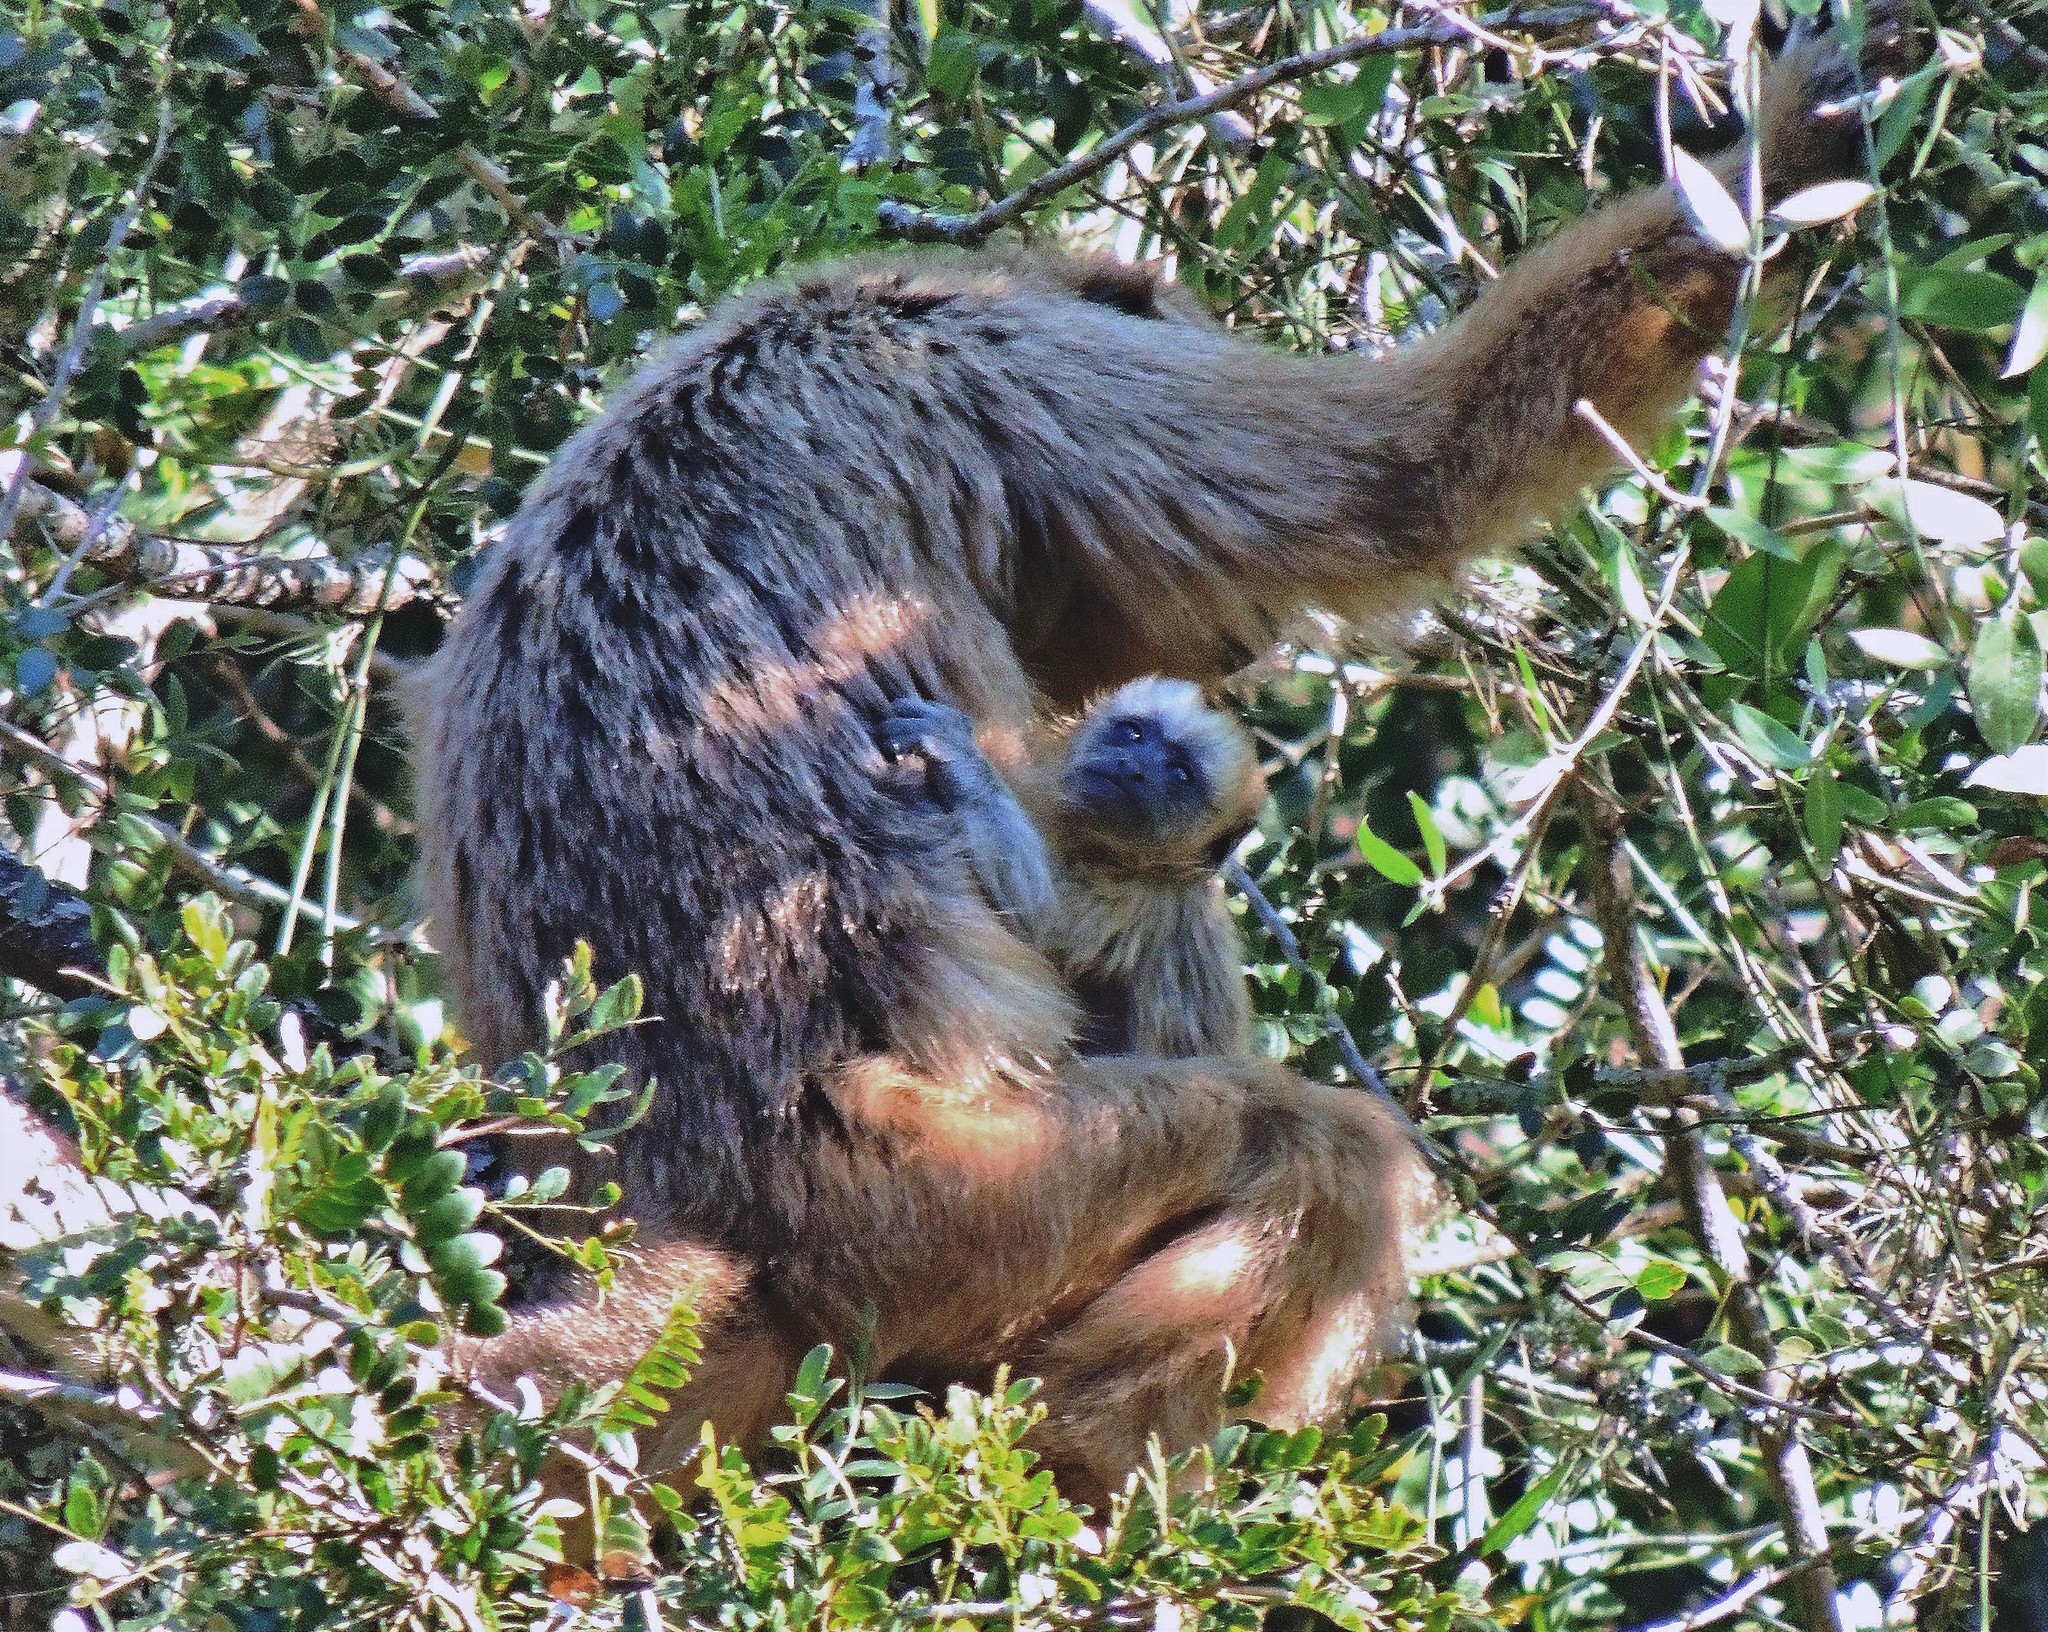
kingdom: Animalia
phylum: Chordata
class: Mammalia
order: Primates
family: Atelidae
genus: Alouatta
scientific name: Alouatta caraya
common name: Black howler
